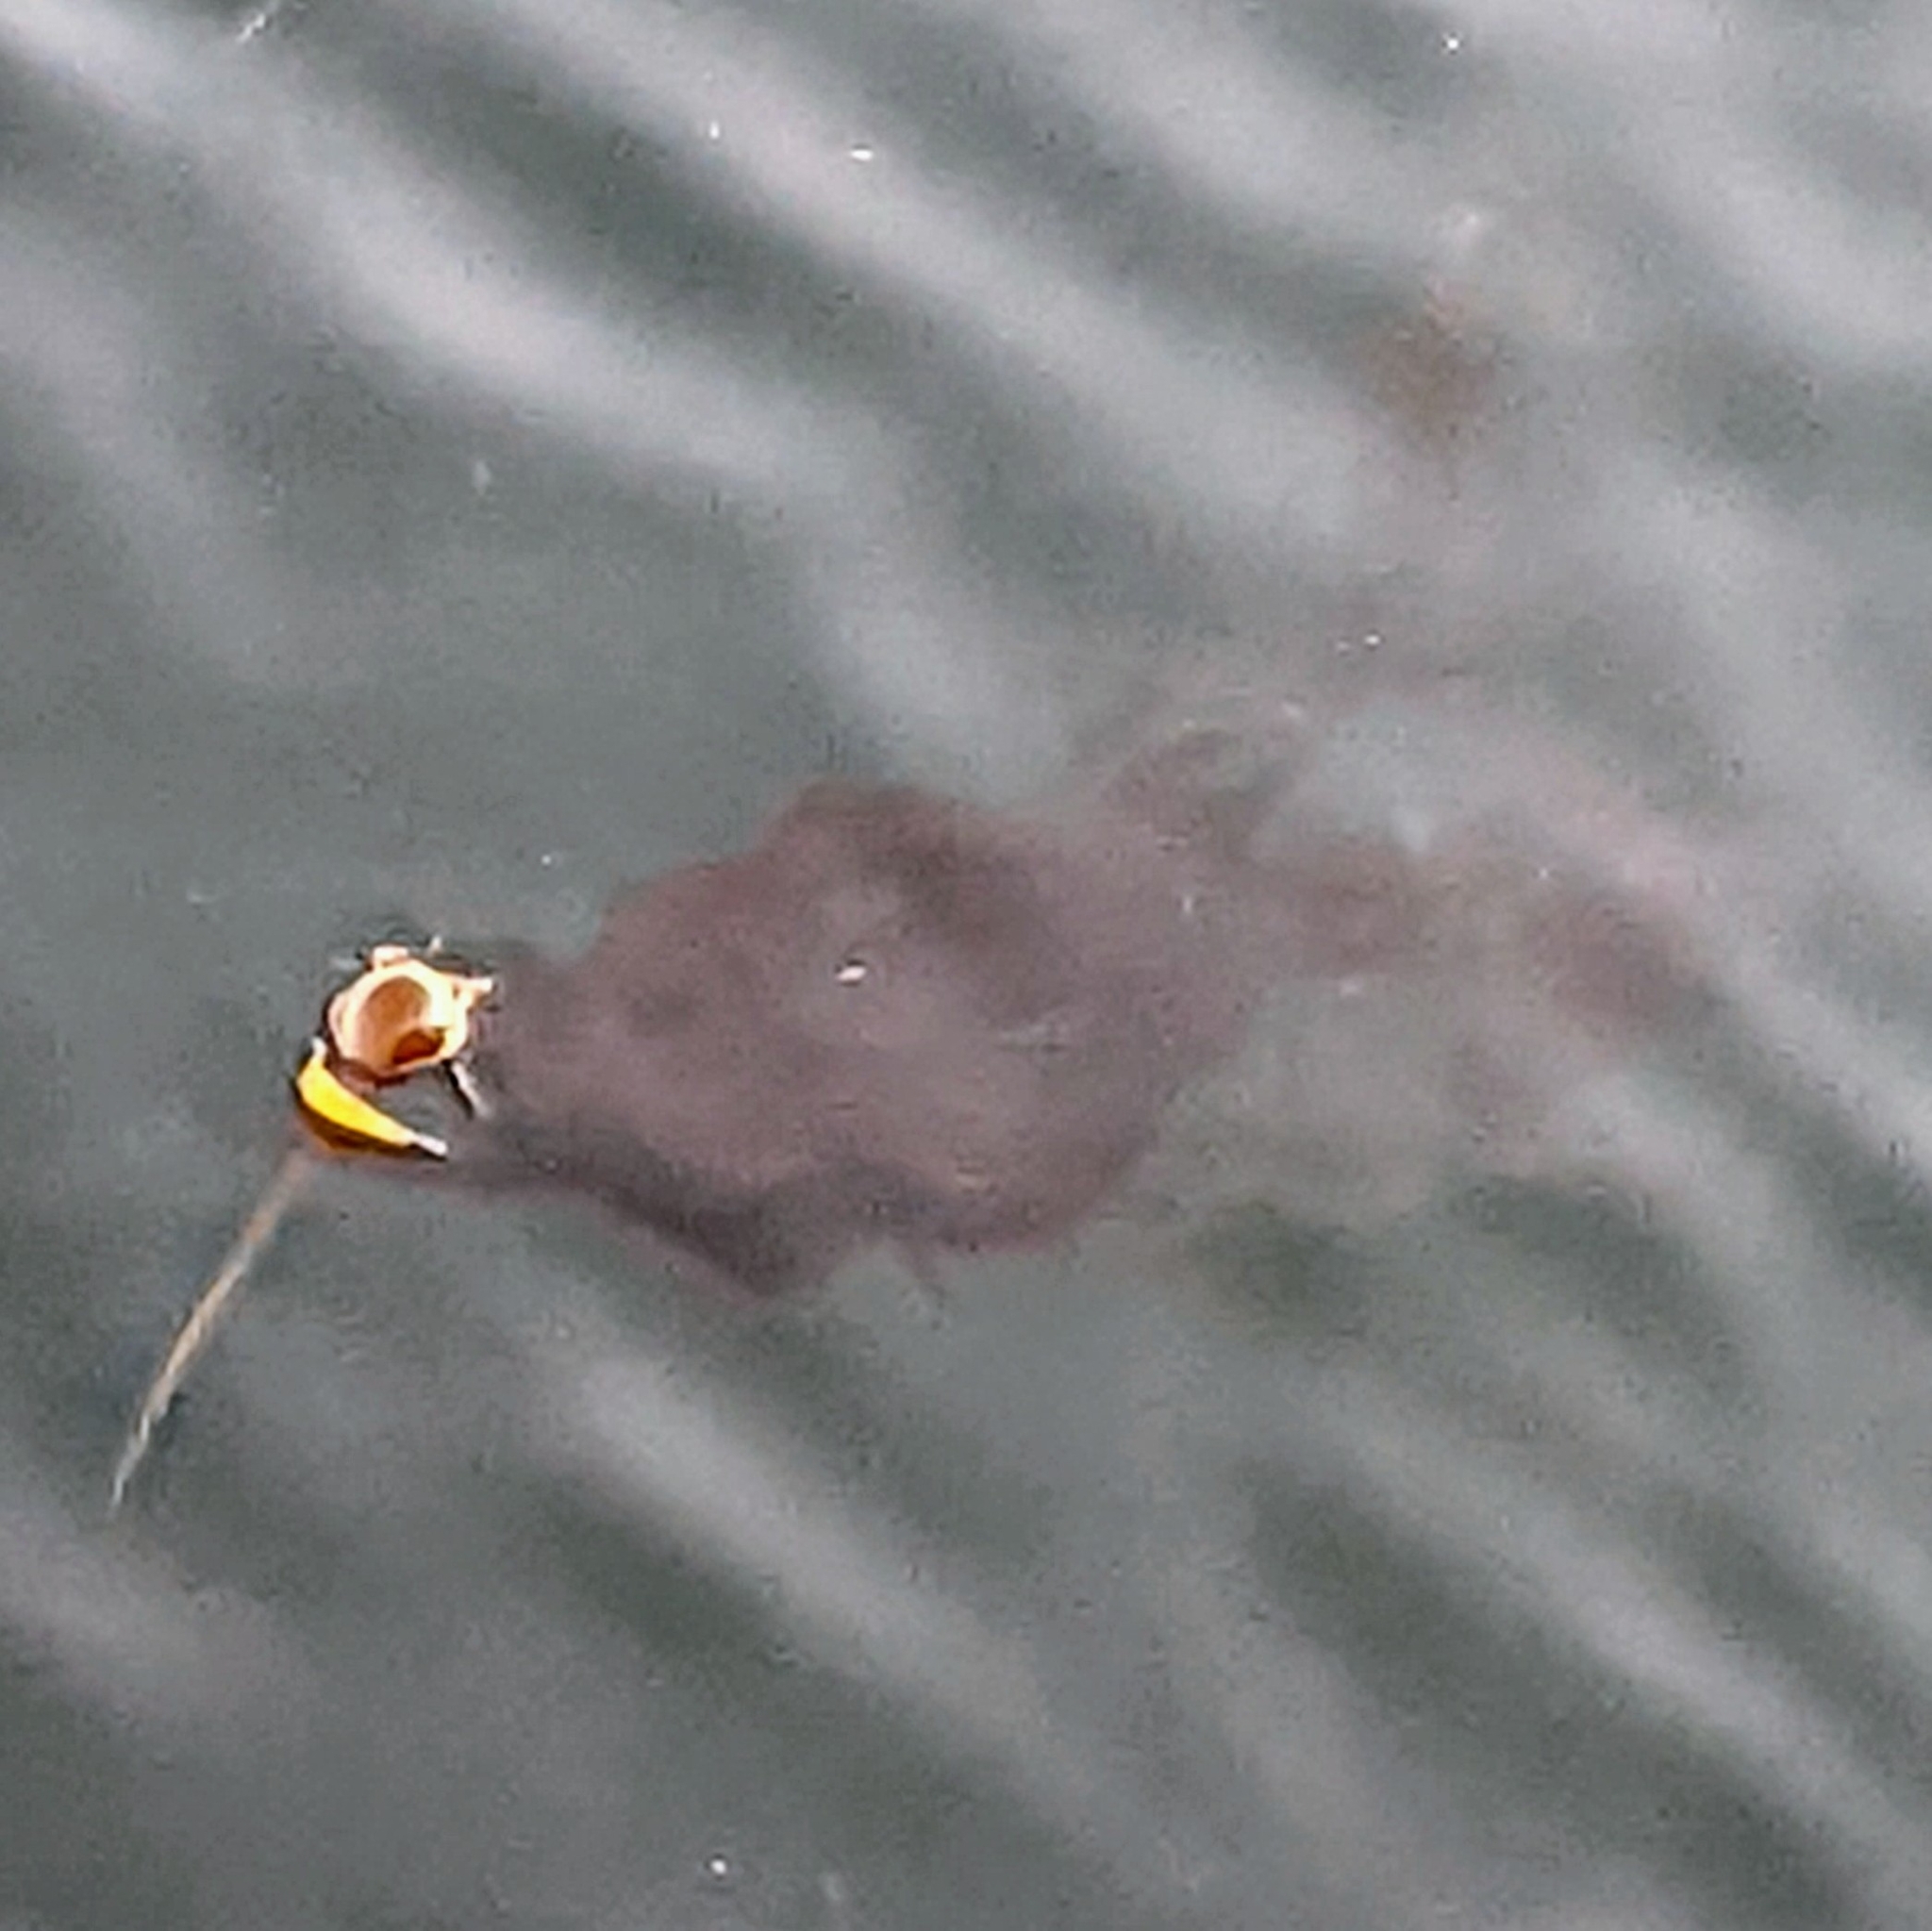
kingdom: Chromista
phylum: Ochrophyta
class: Phaeophyceae
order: Laminariales
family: Laminariaceae
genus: Nereocystis
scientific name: Nereocystis luetkeana
